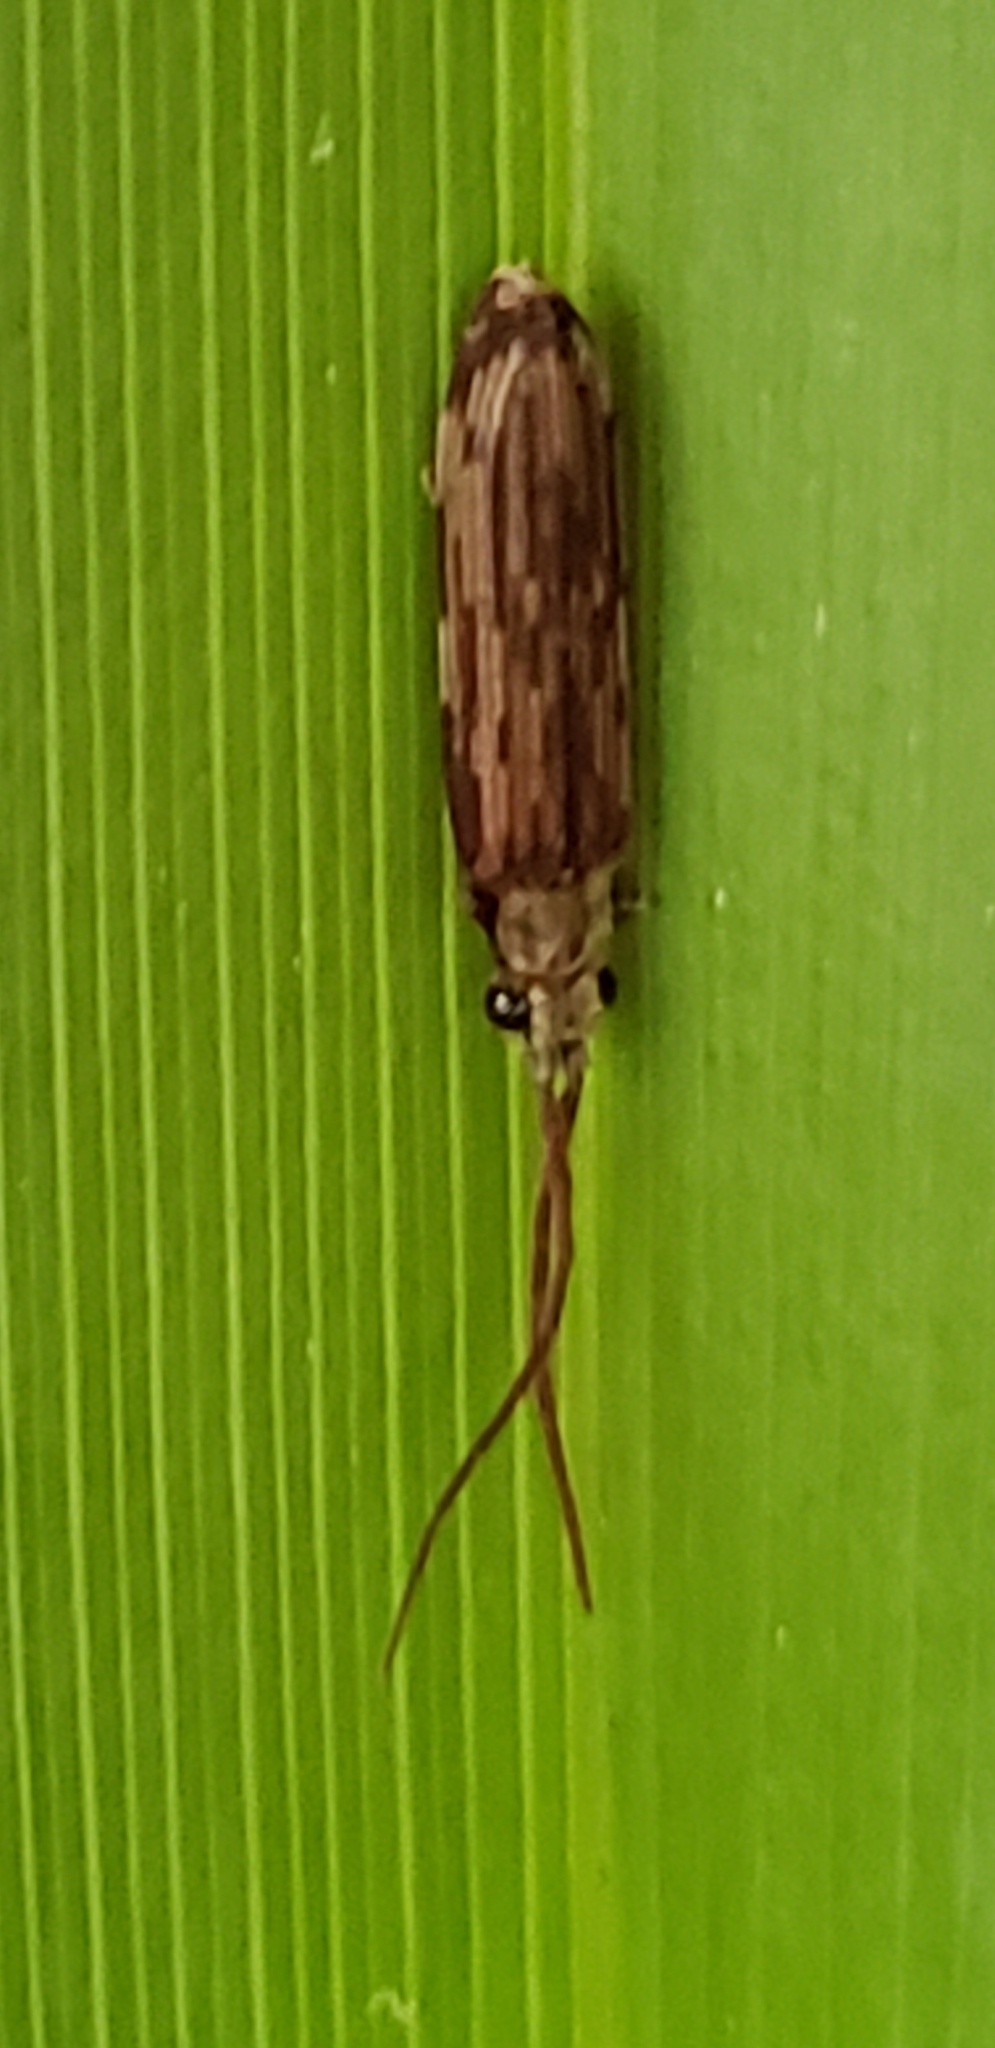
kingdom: Animalia
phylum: Arthropoda
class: Insecta
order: Coleoptera
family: Cupedidae
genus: Tenomerga
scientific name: Tenomerga cinerea
